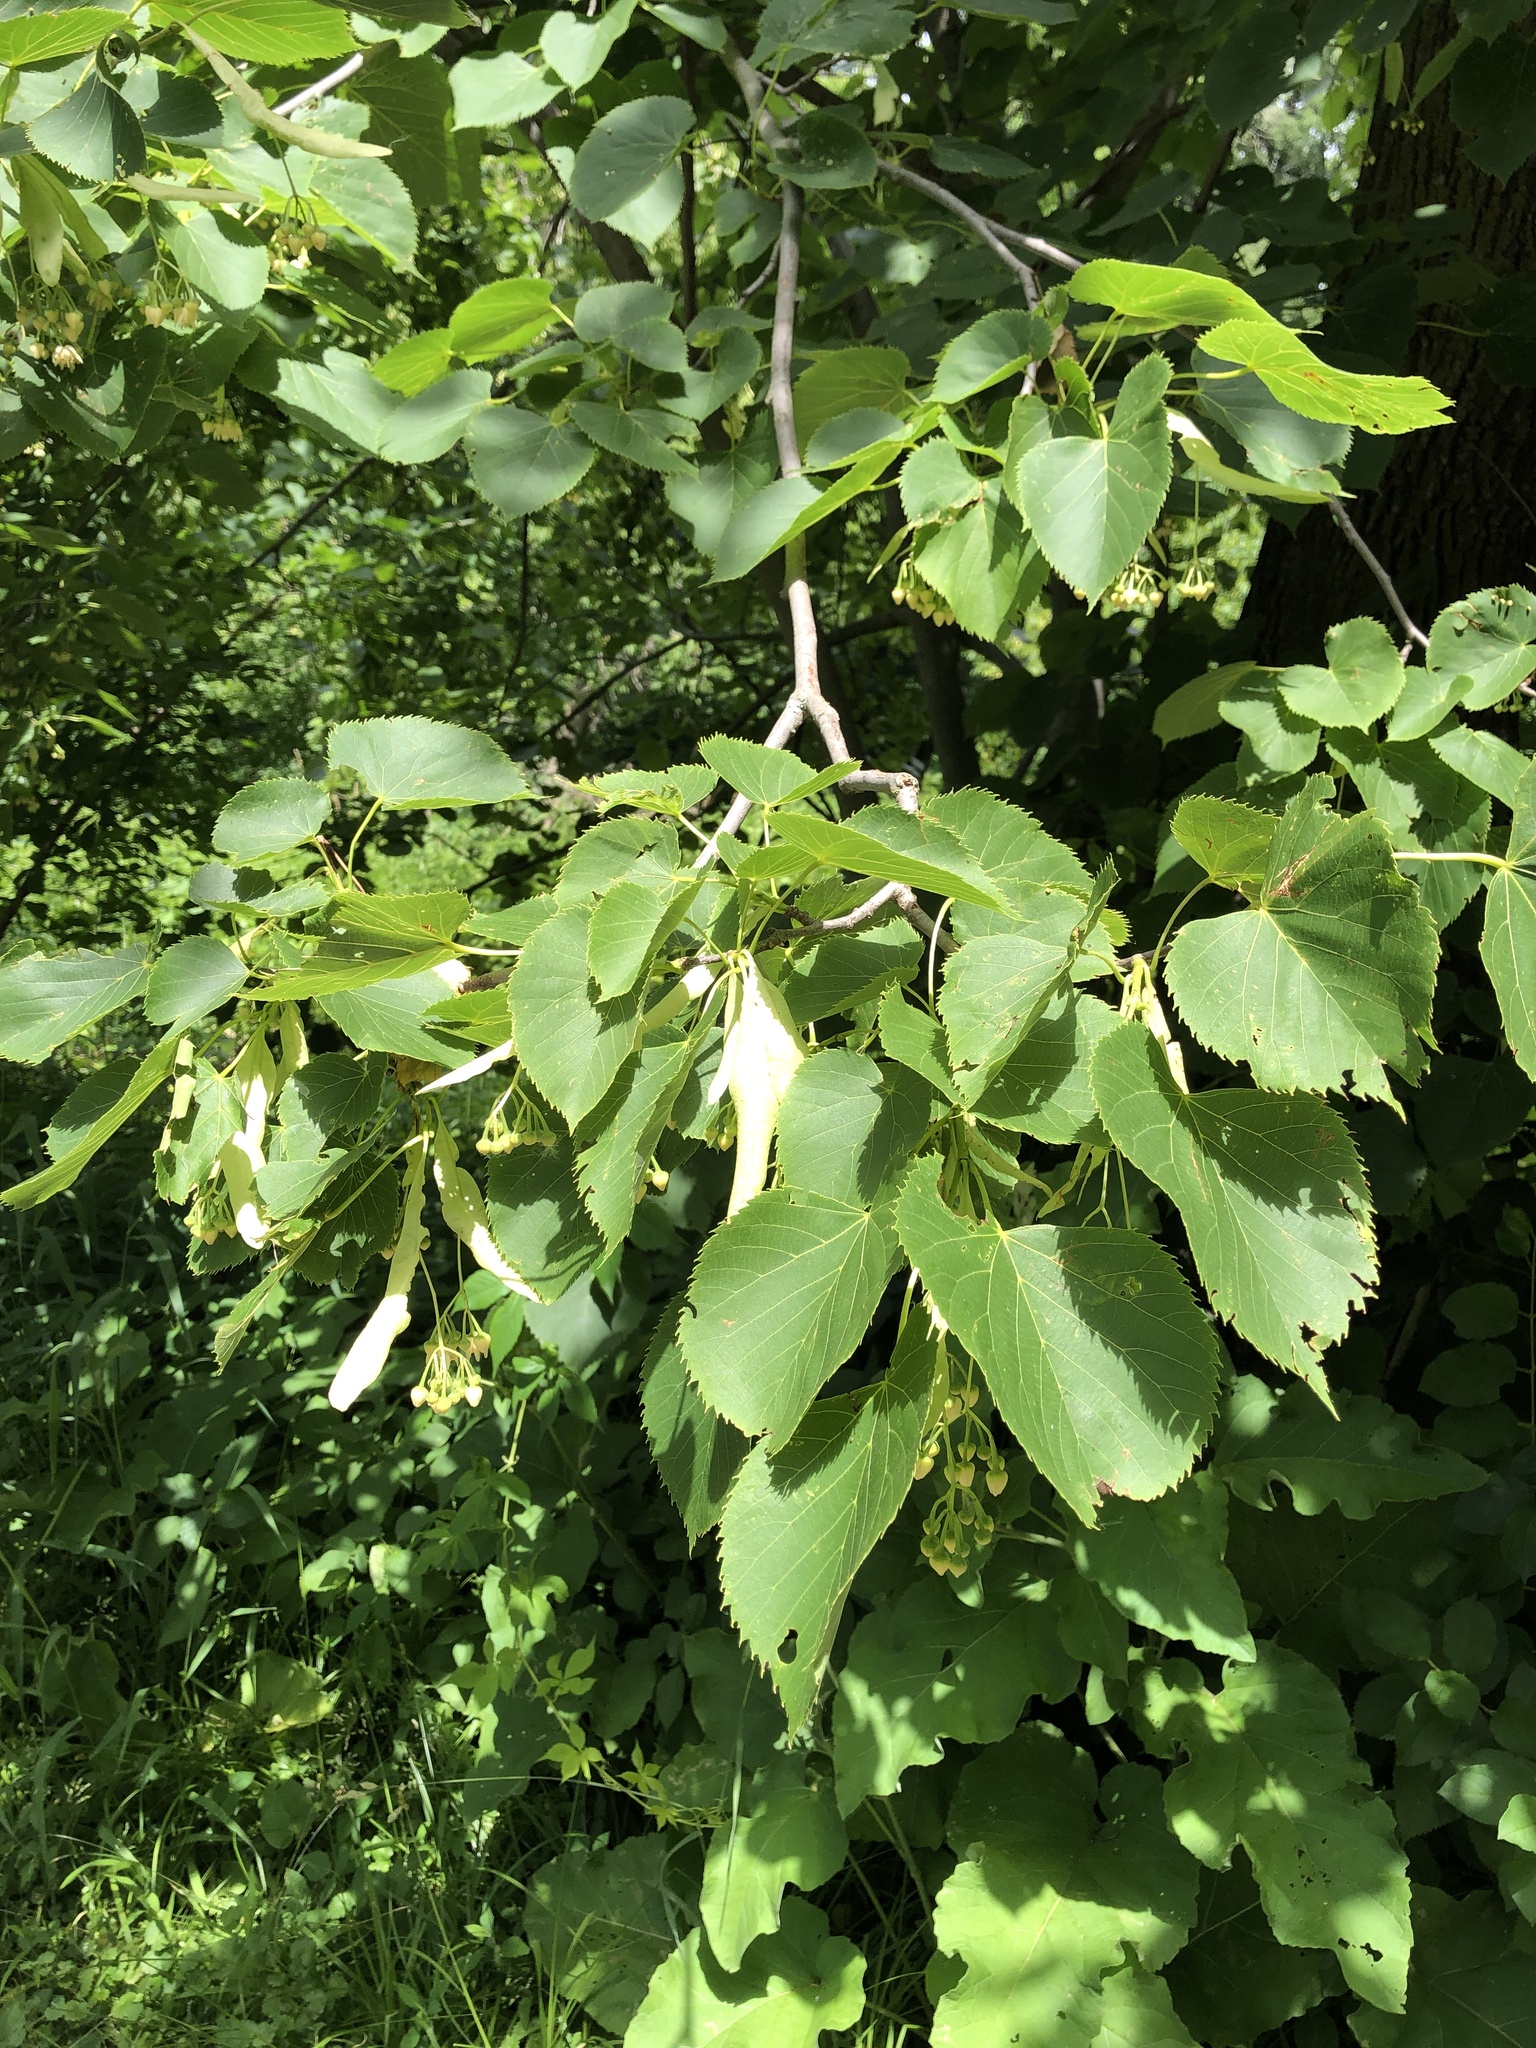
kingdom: Plantae
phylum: Tracheophyta
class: Magnoliopsida
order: Malvales
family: Malvaceae
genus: Tilia
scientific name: Tilia americana
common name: Basswood
